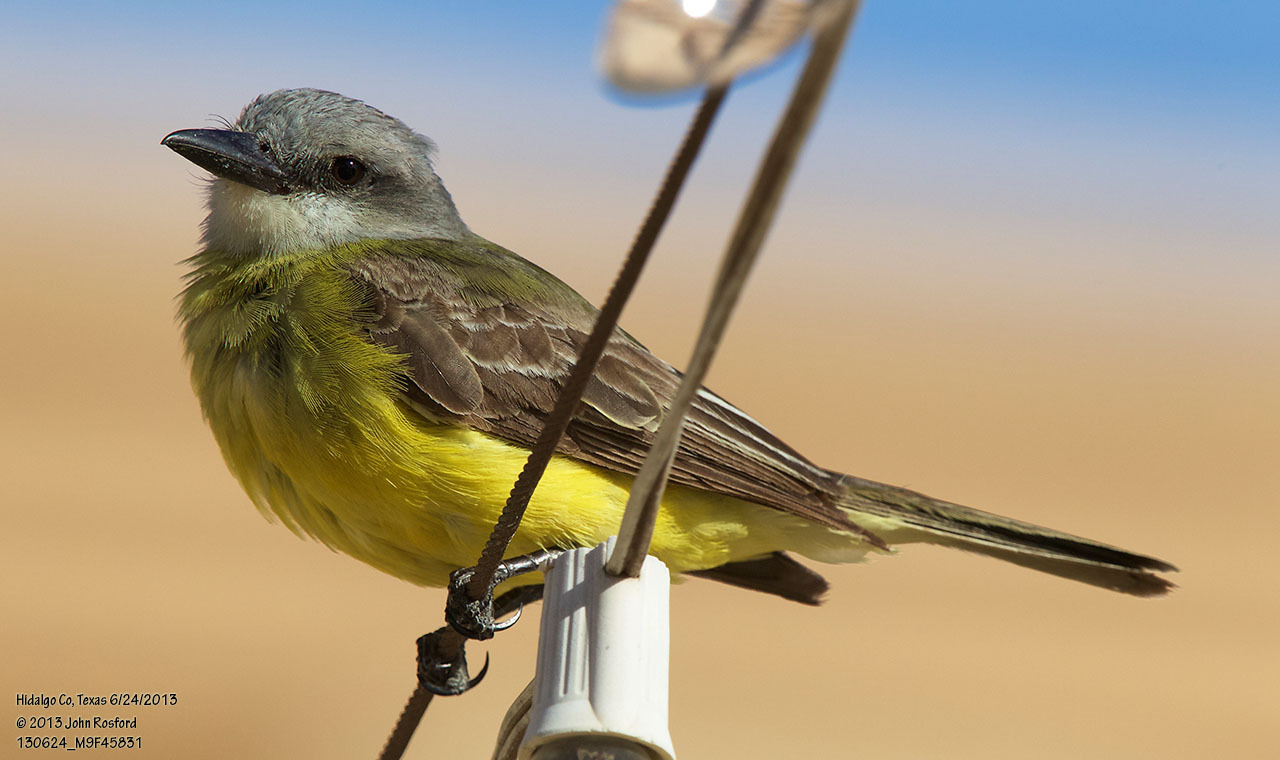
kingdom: Animalia
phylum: Chordata
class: Aves
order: Passeriformes
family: Tyrannidae
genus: Tyrannus
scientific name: Tyrannus melancholicus
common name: Tropical kingbird
